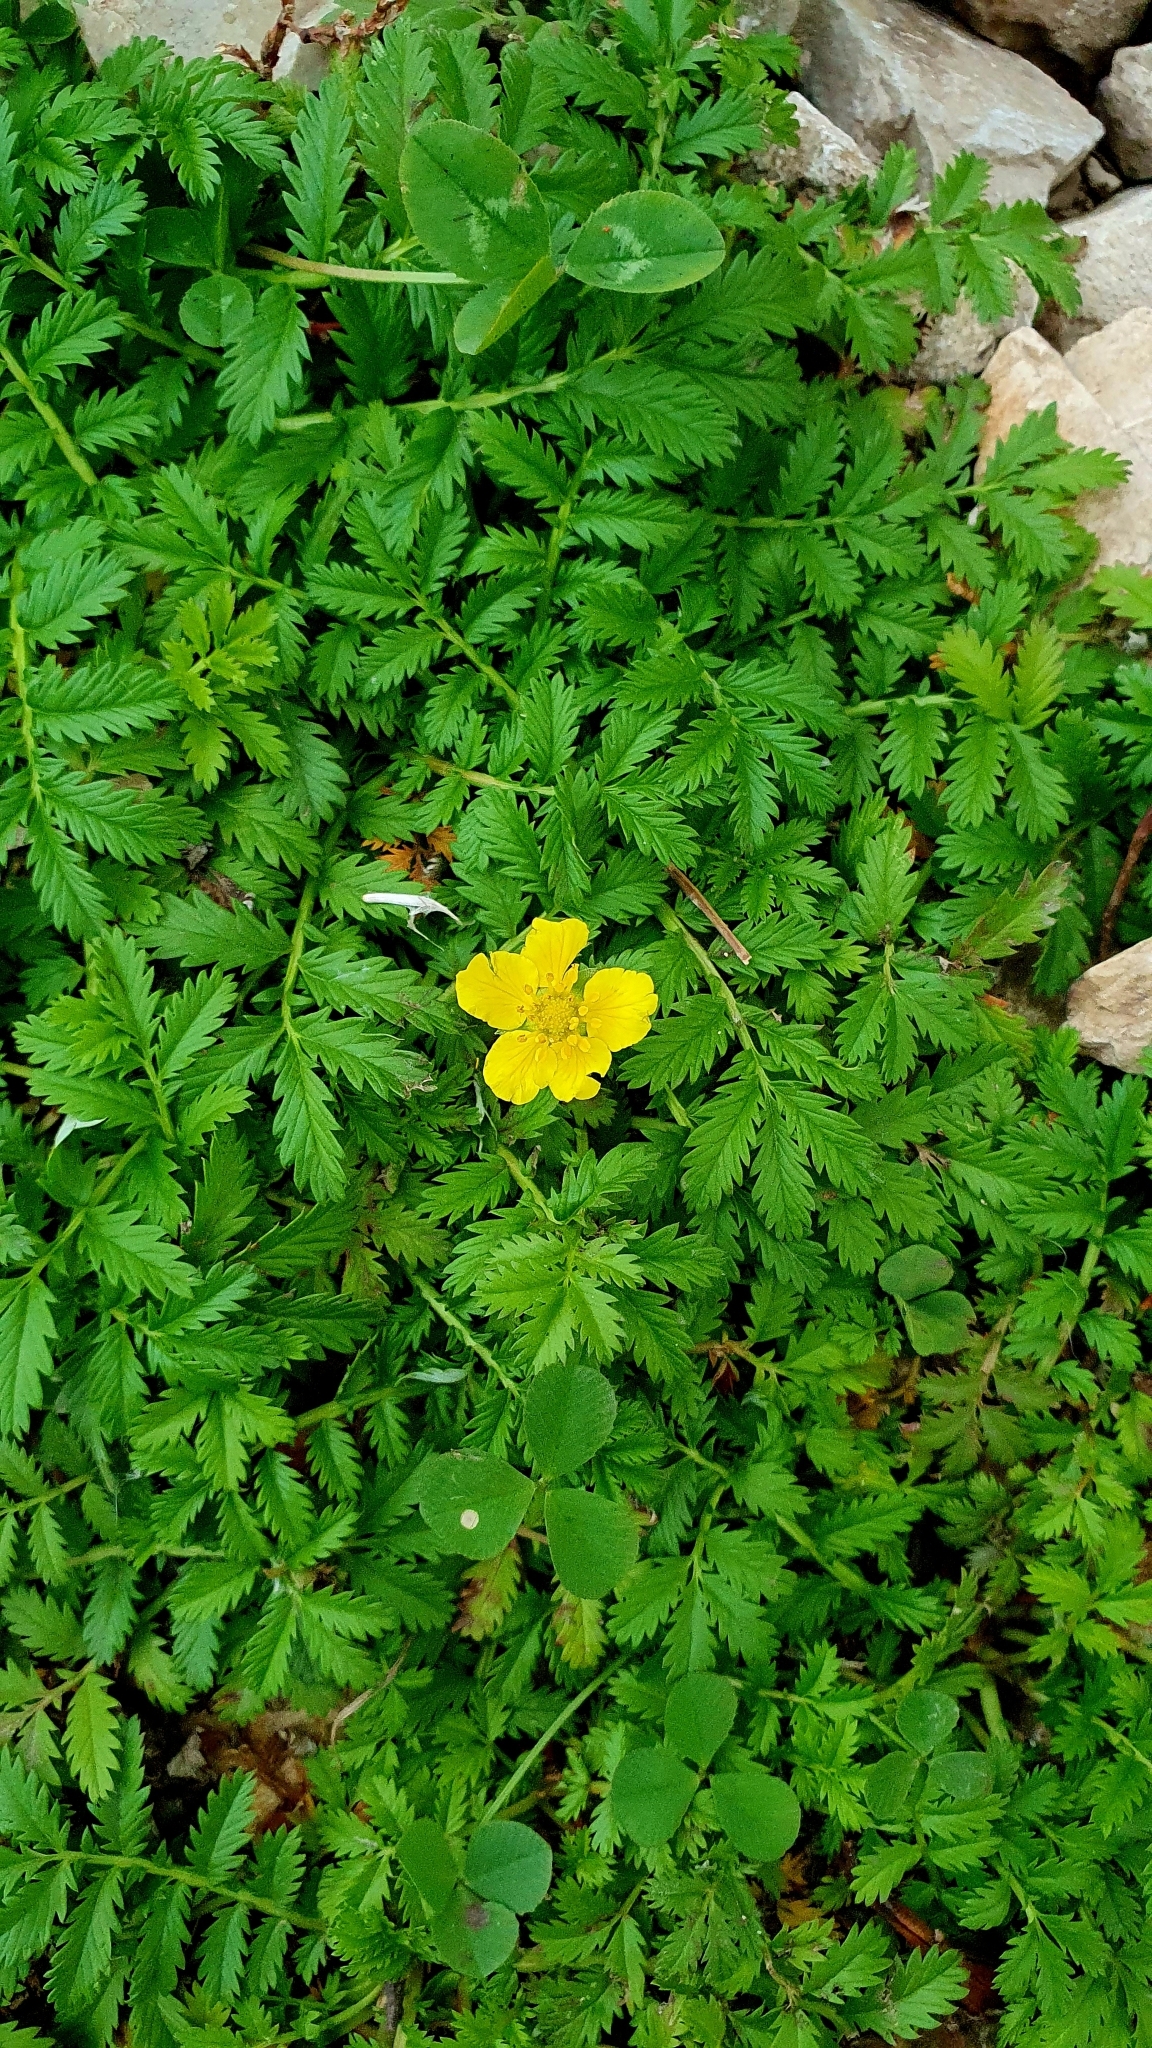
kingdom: Plantae
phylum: Tracheophyta
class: Magnoliopsida
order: Rosales
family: Rosaceae
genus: Argentina
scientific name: Argentina anserina
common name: Common silverweed
